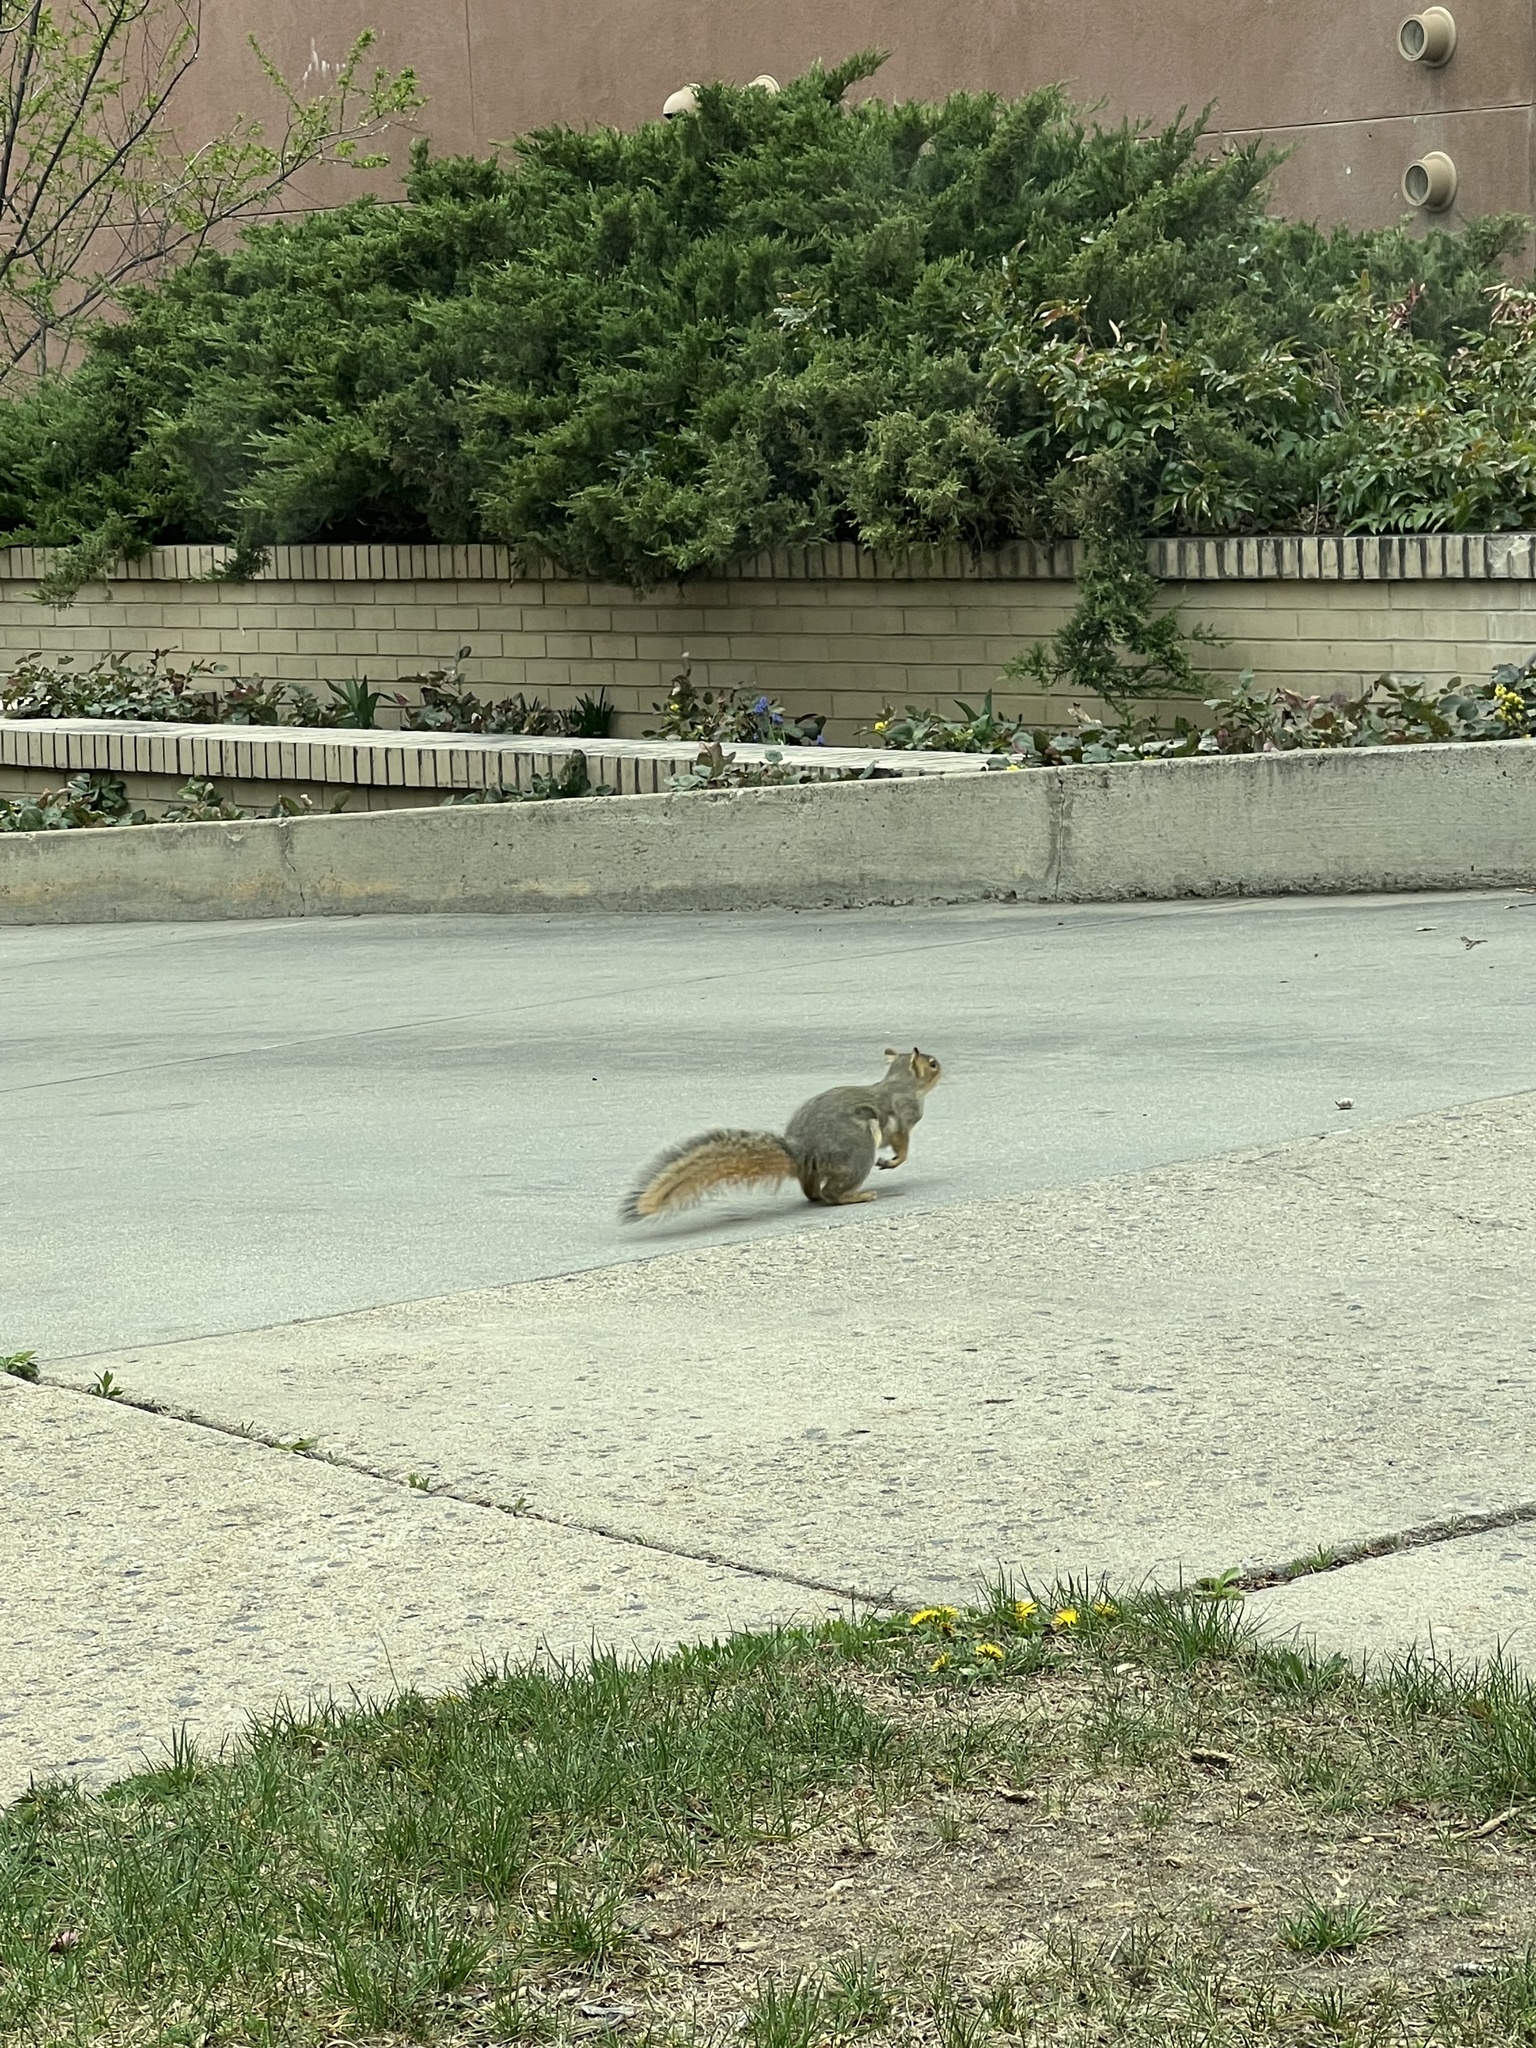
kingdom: Animalia
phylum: Chordata
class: Mammalia
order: Rodentia
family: Sciuridae
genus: Sciurus
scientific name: Sciurus niger
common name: Fox squirrel
